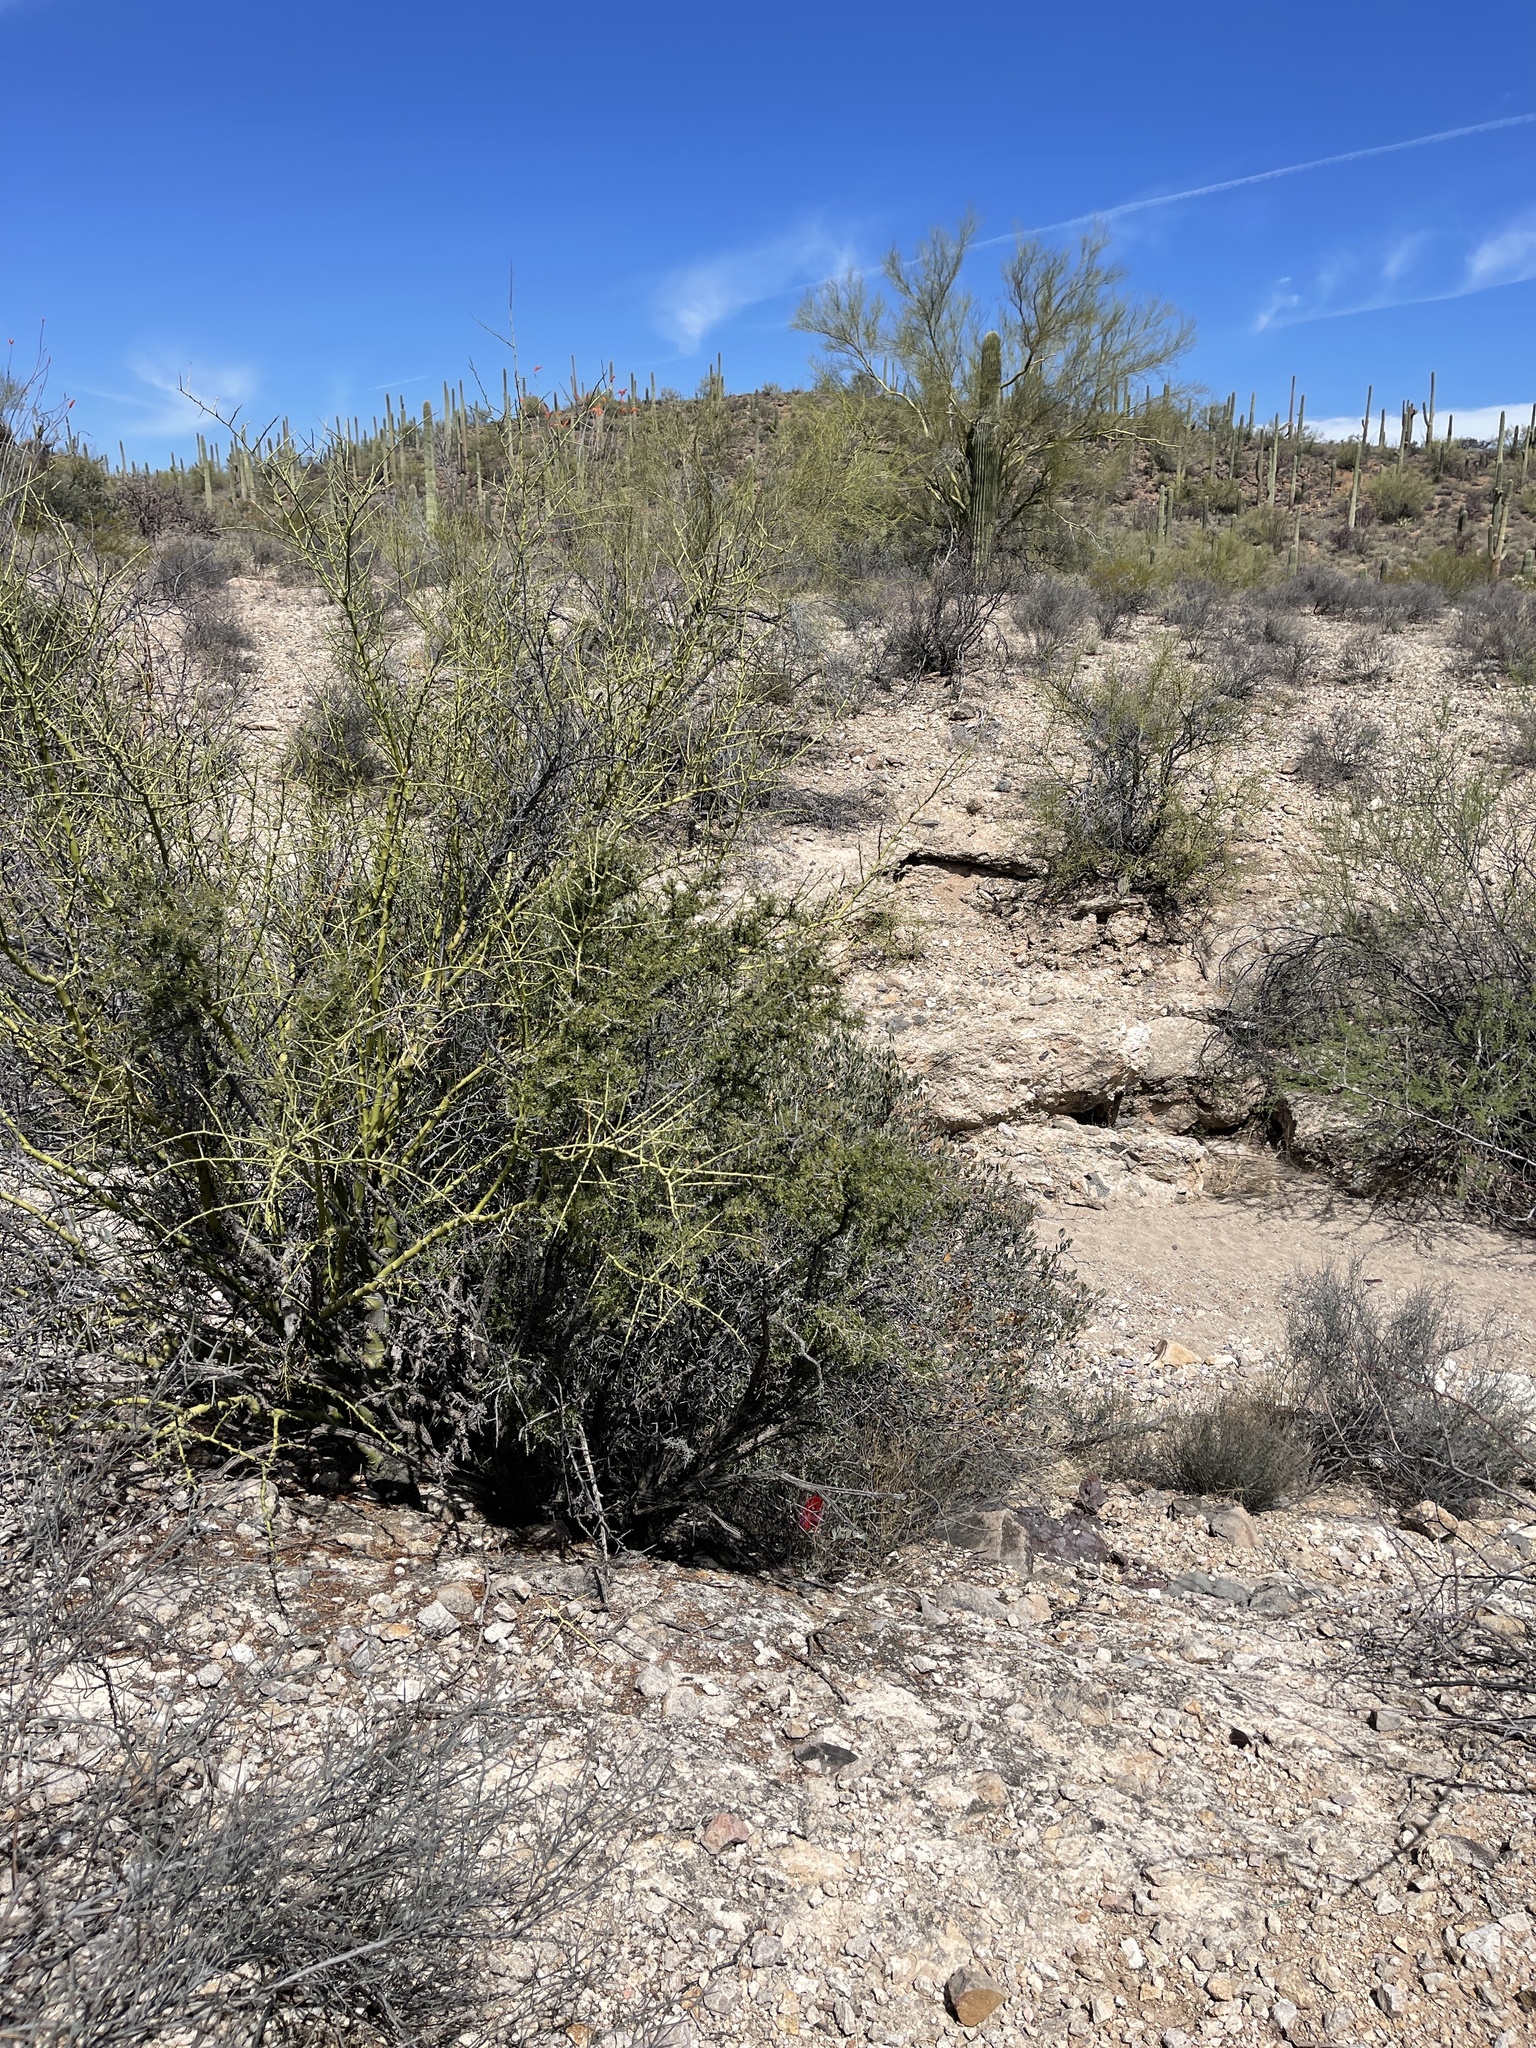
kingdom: Plantae
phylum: Tracheophyta
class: Magnoliopsida
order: Rosales
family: Rhamnaceae
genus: Condalia
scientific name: Condalia warnockii
